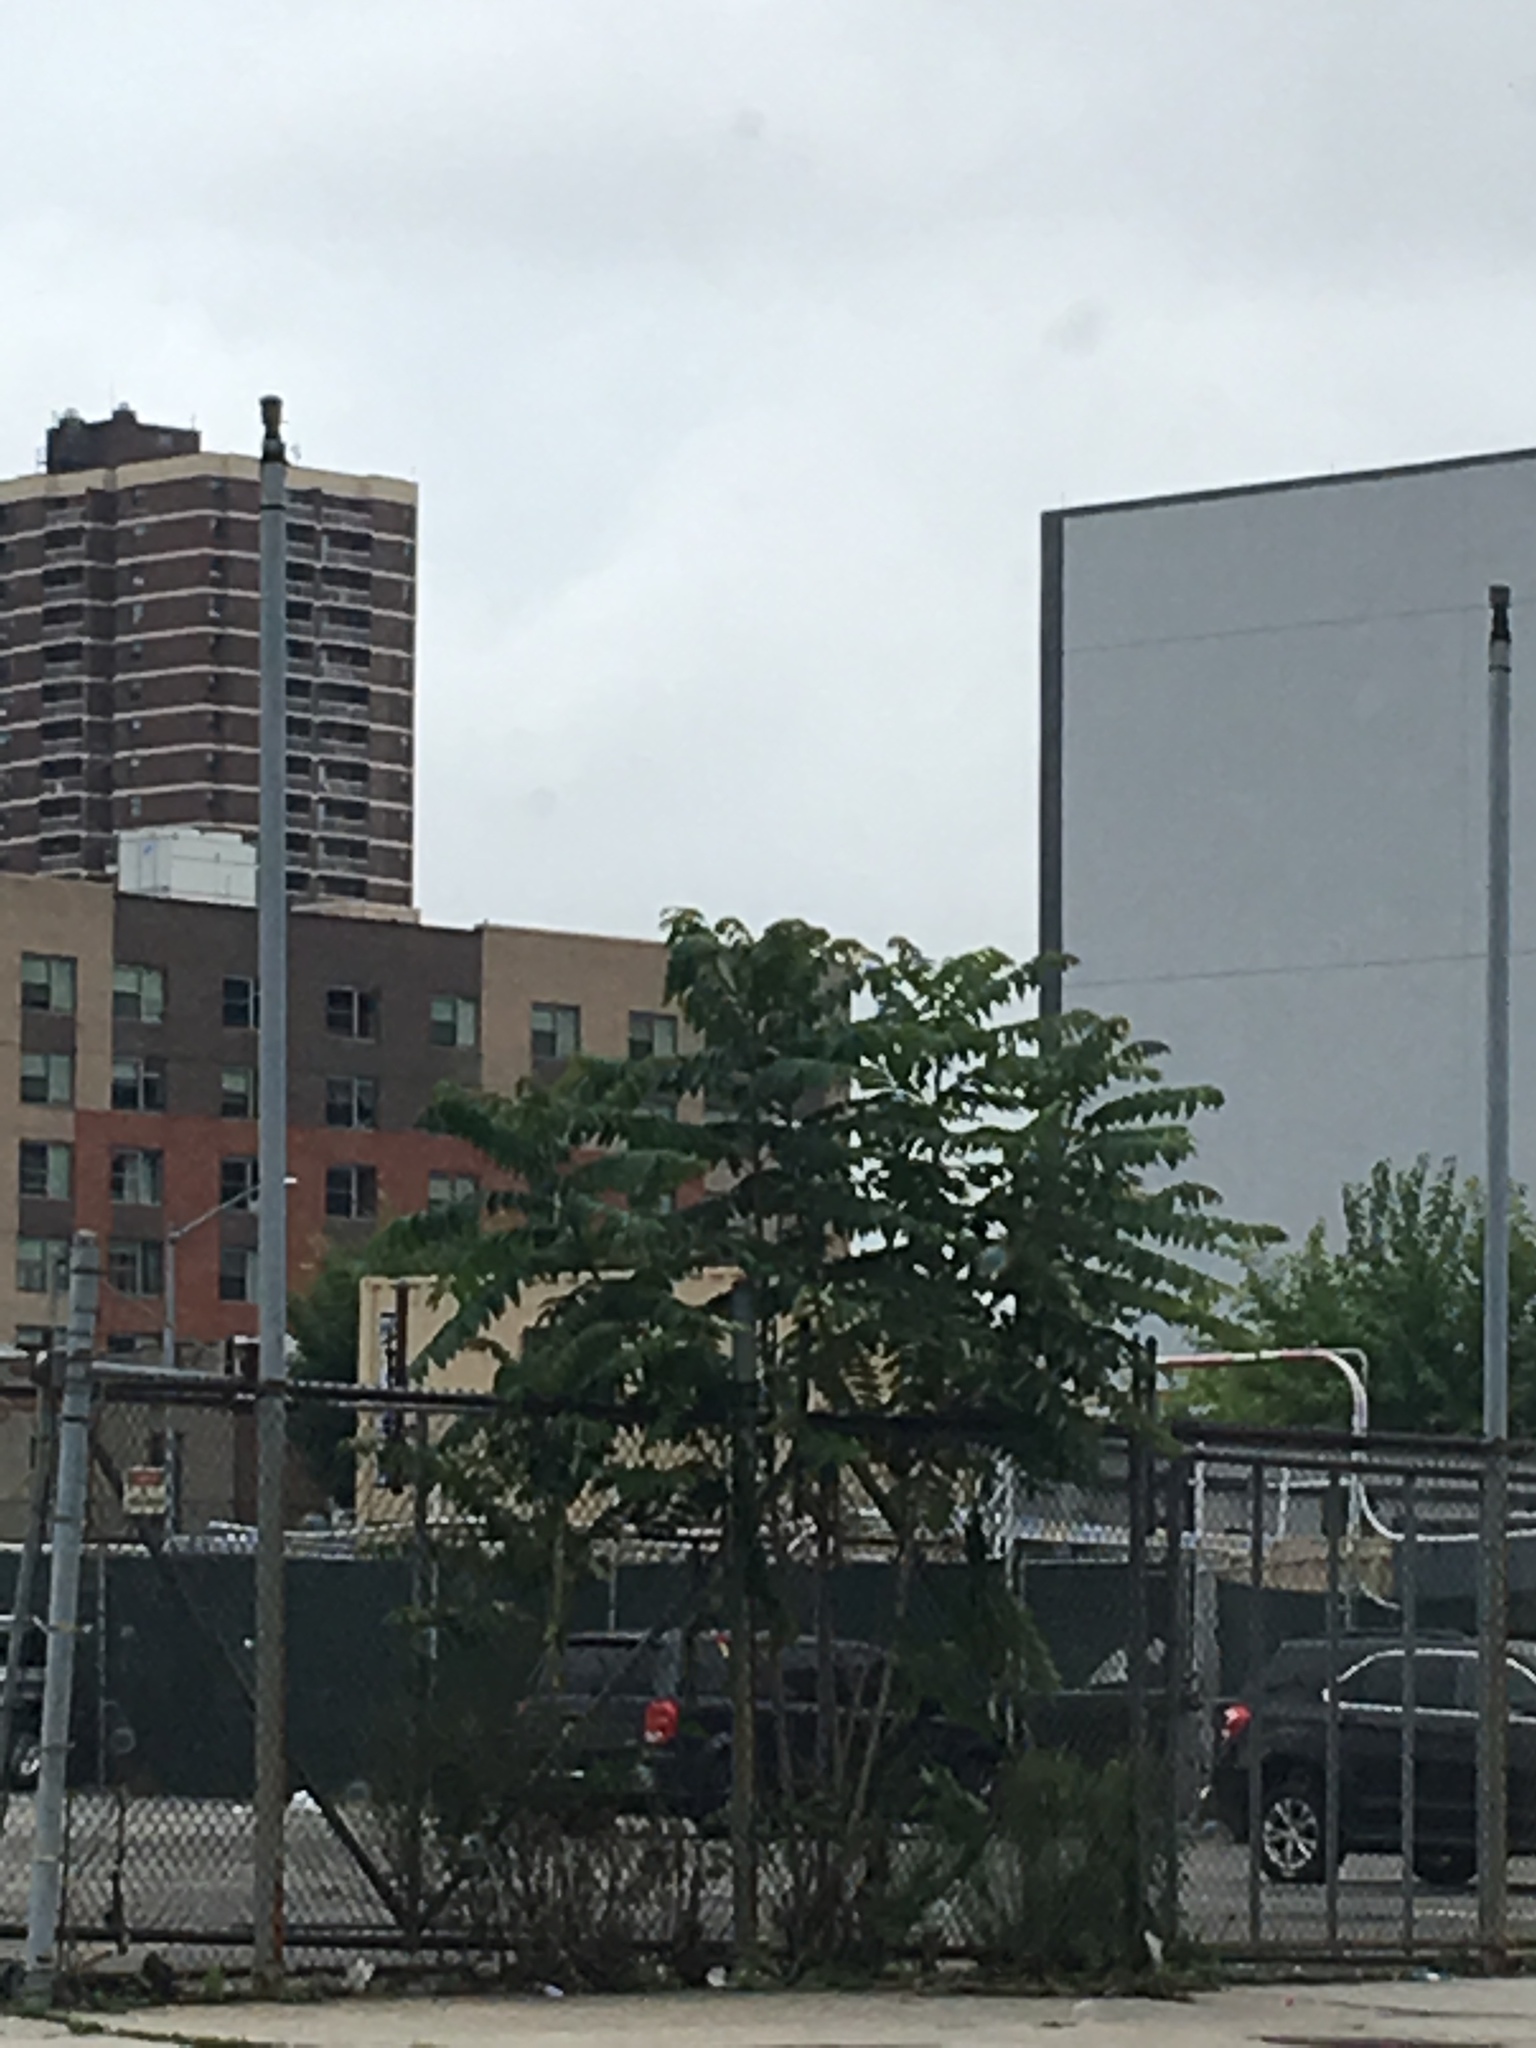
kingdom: Plantae
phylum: Tracheophyta
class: Magnoliopsida
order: Sapindales
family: Simaroubaceae
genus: Ailanthus
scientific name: Ailanthus altissima
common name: Tree-of-heaven
